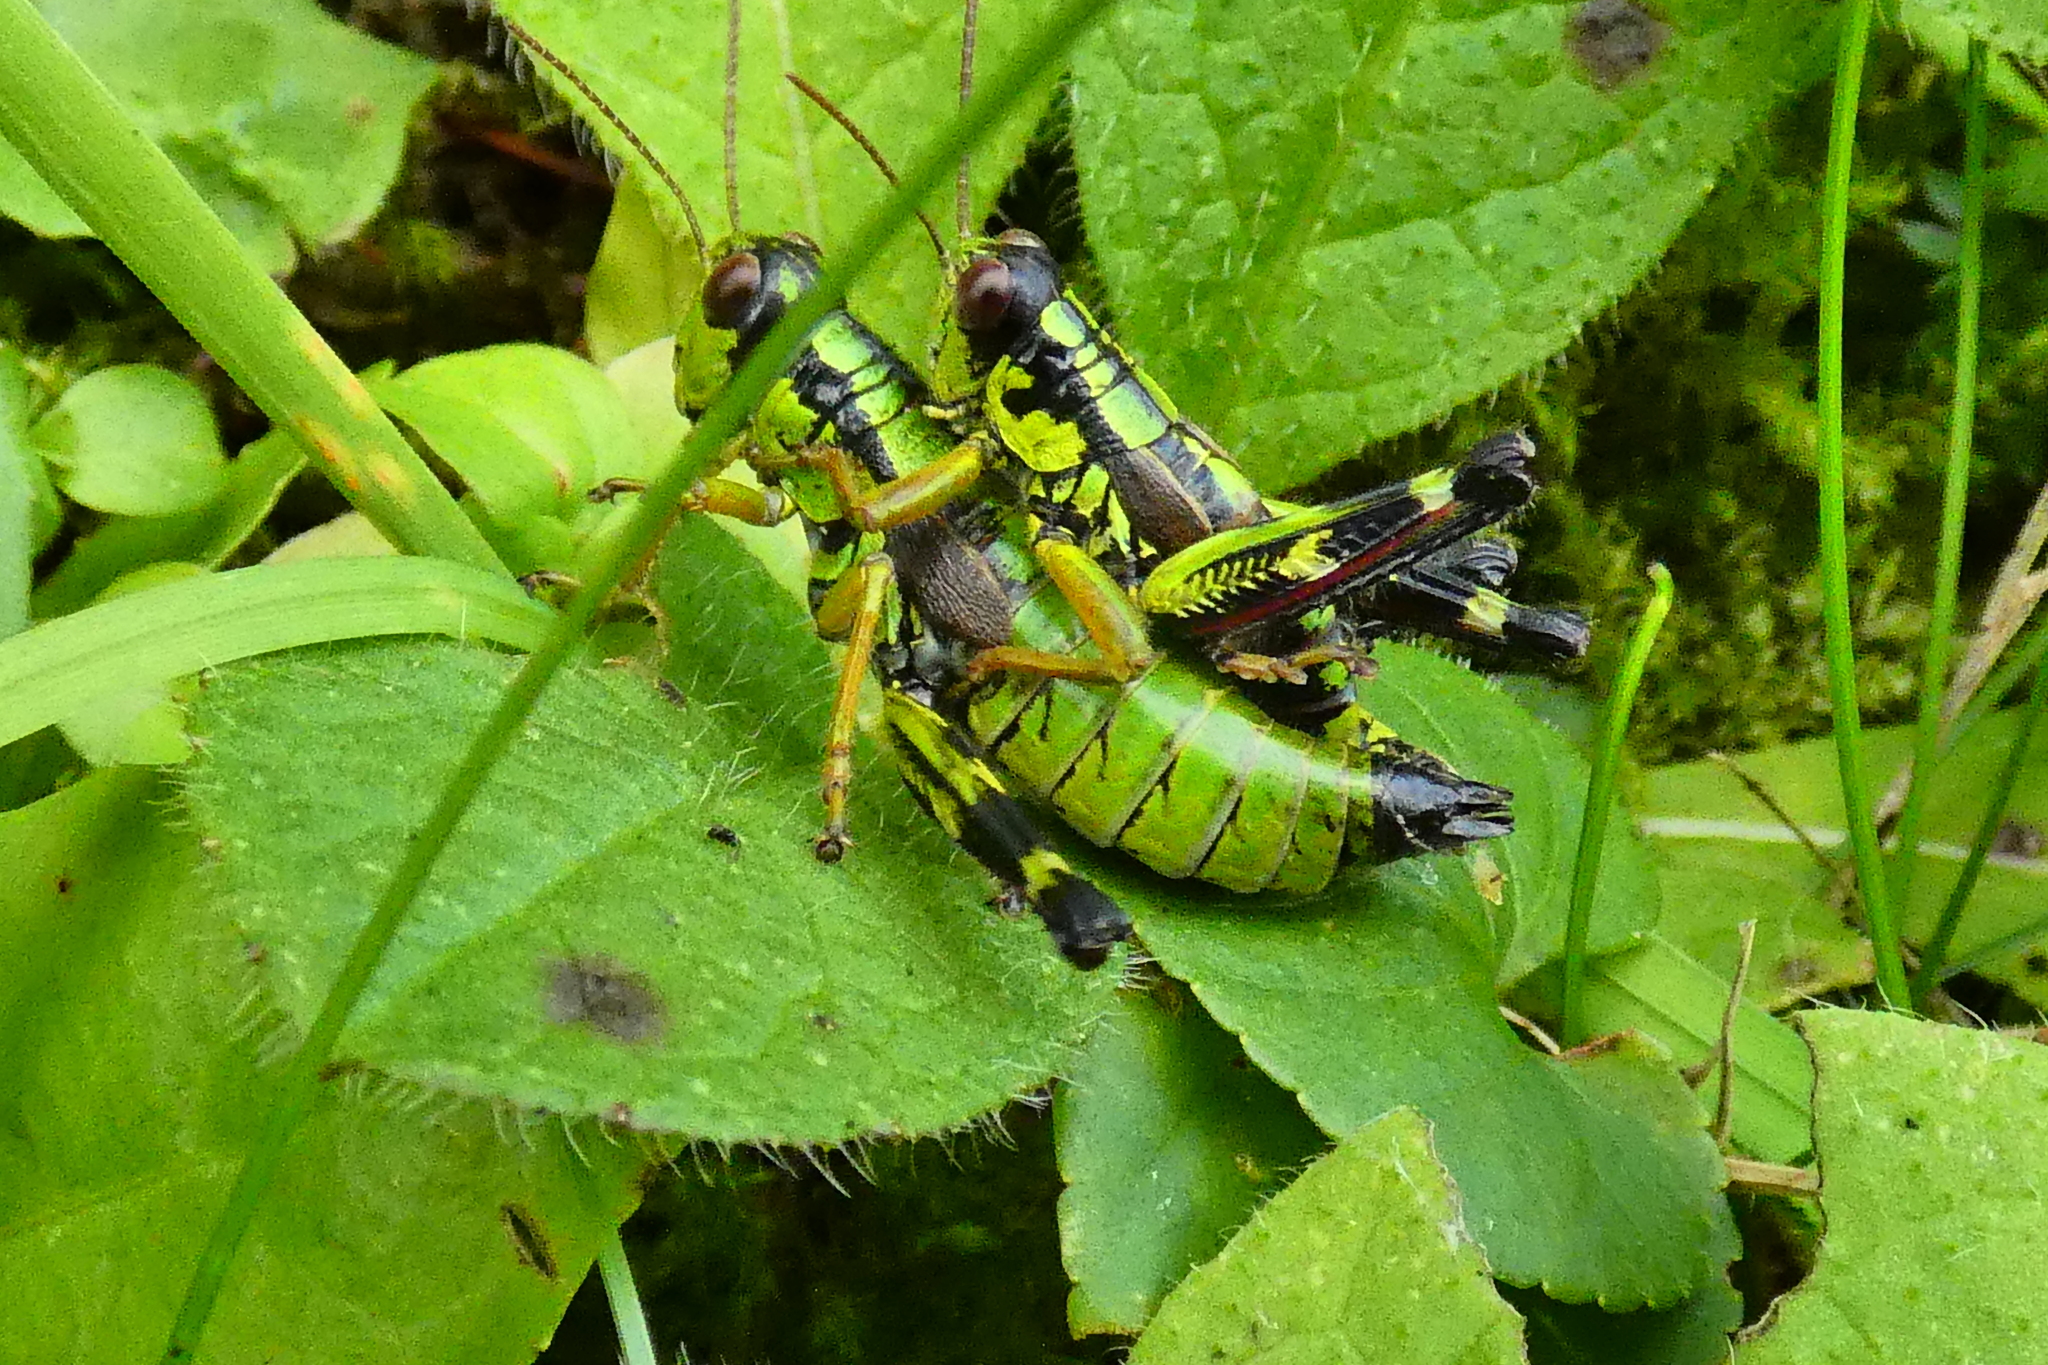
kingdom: Animalia
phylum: Arthropoda
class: Insecta
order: Orthoptera
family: Acrididae
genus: Miramella
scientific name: Miramella alpina
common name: Green mountain grasshopper
